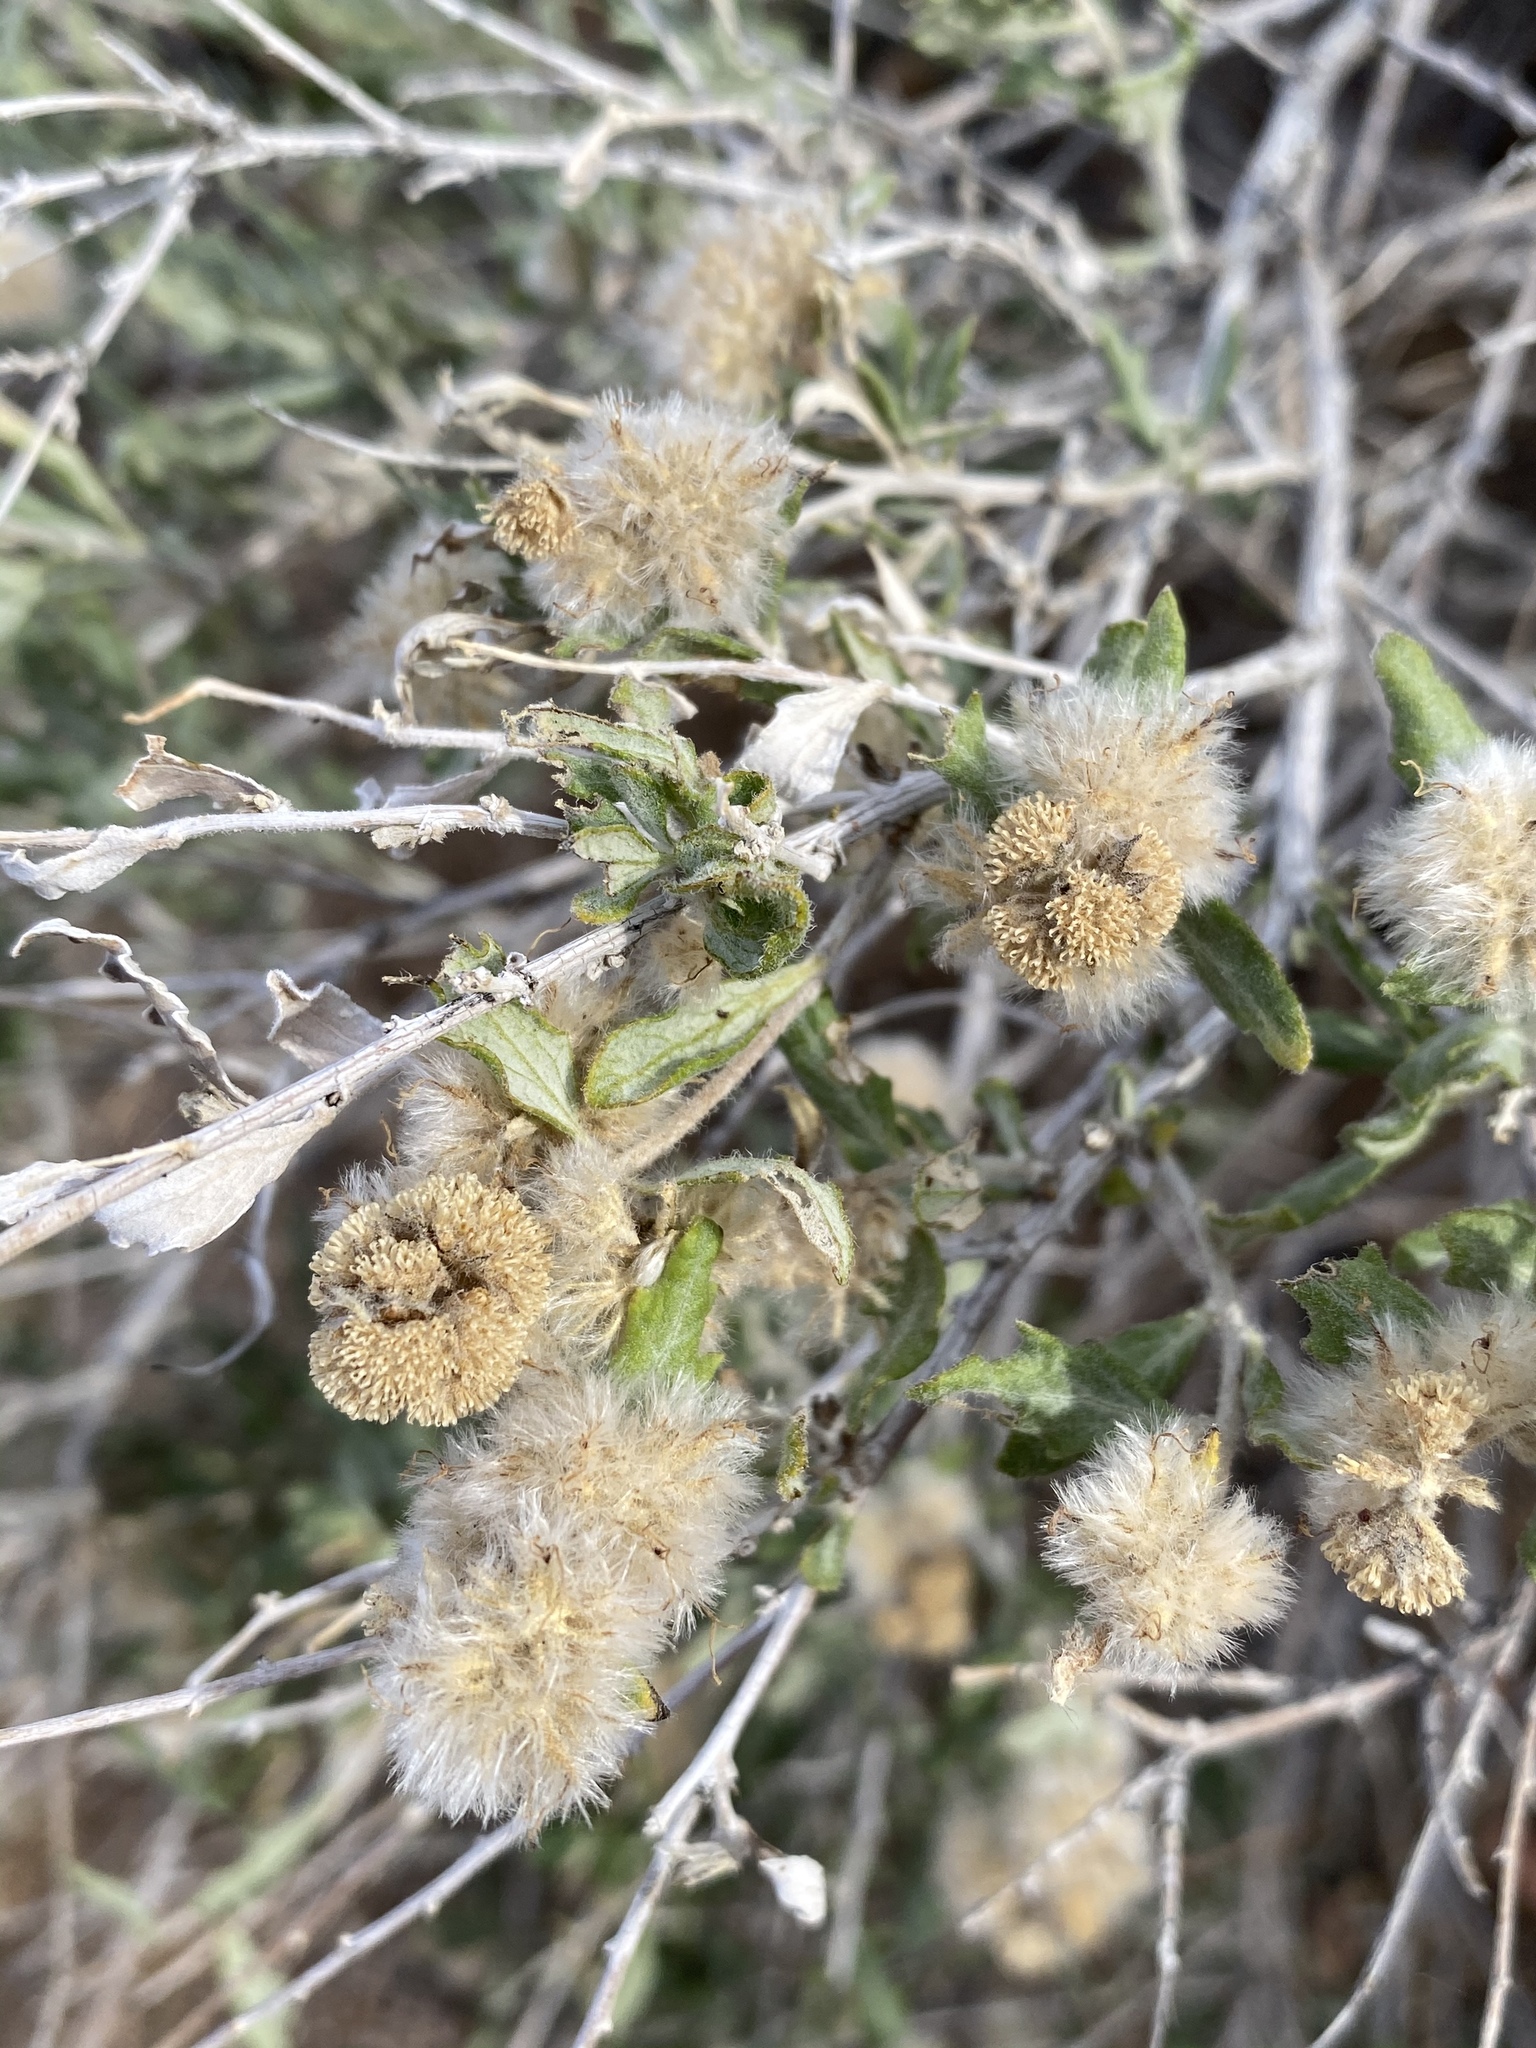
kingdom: Plantae
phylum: Tracheophyta
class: Magnoliopsida
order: Asterales
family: Asteraceae
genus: Ambrosia
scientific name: Ambrosia eriocentra
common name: Woolly bur-sage
